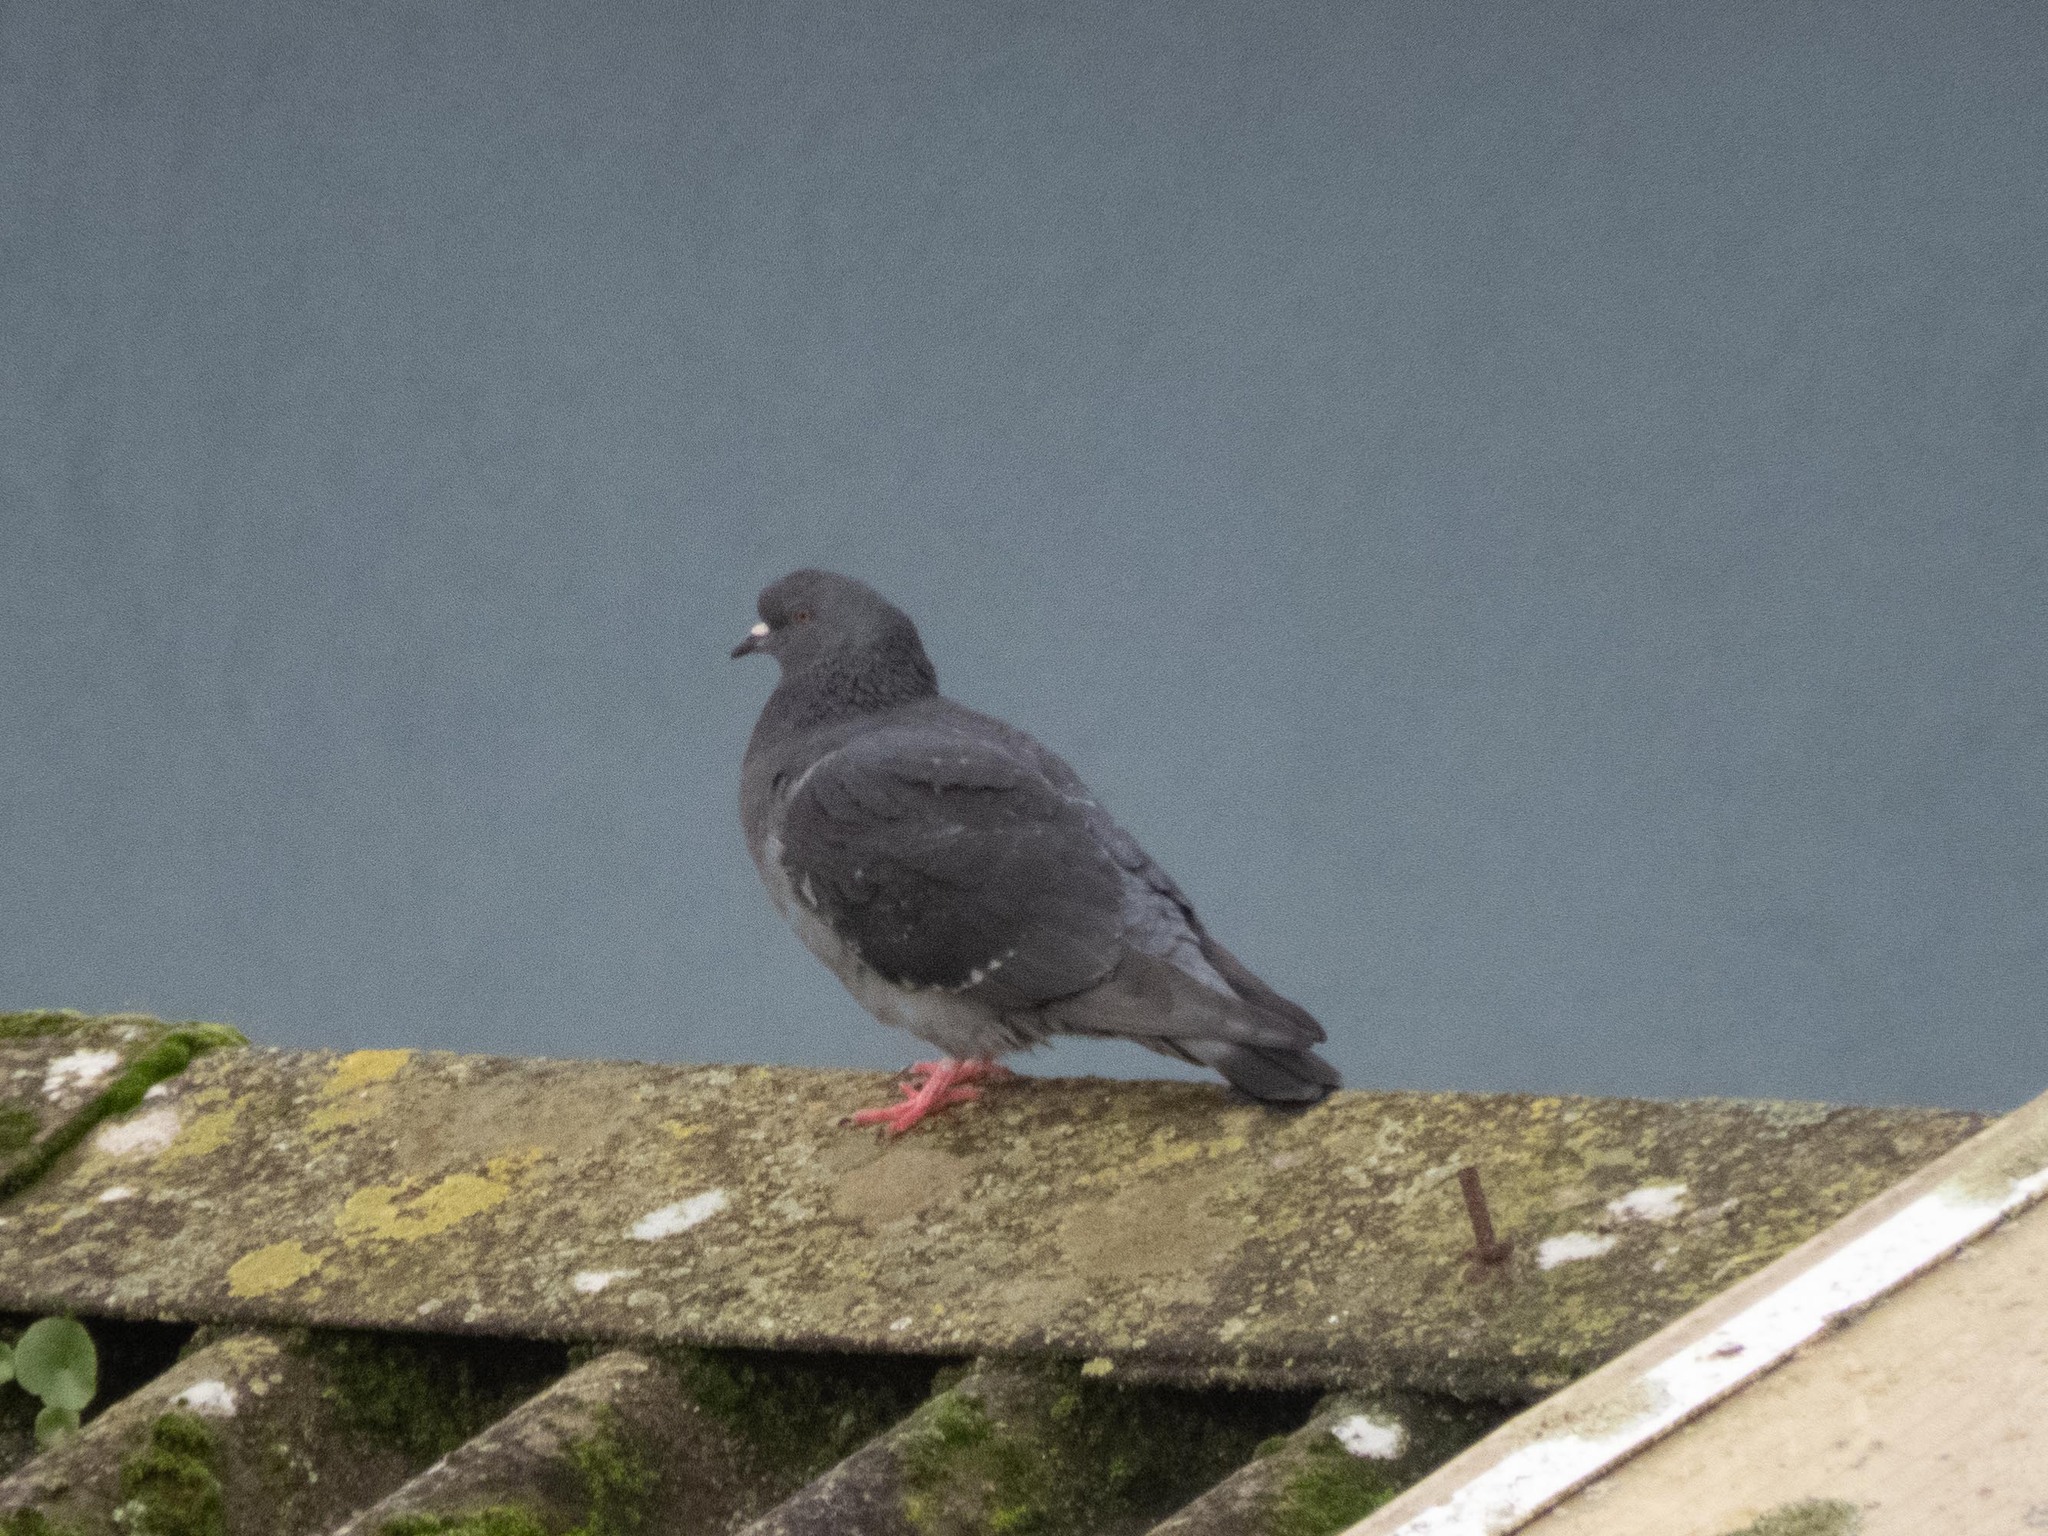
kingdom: Animalia
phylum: Chordata
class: Aves
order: Columbiformes
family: Columbidae
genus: Columba
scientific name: Columba livia
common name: Rock pigeon
